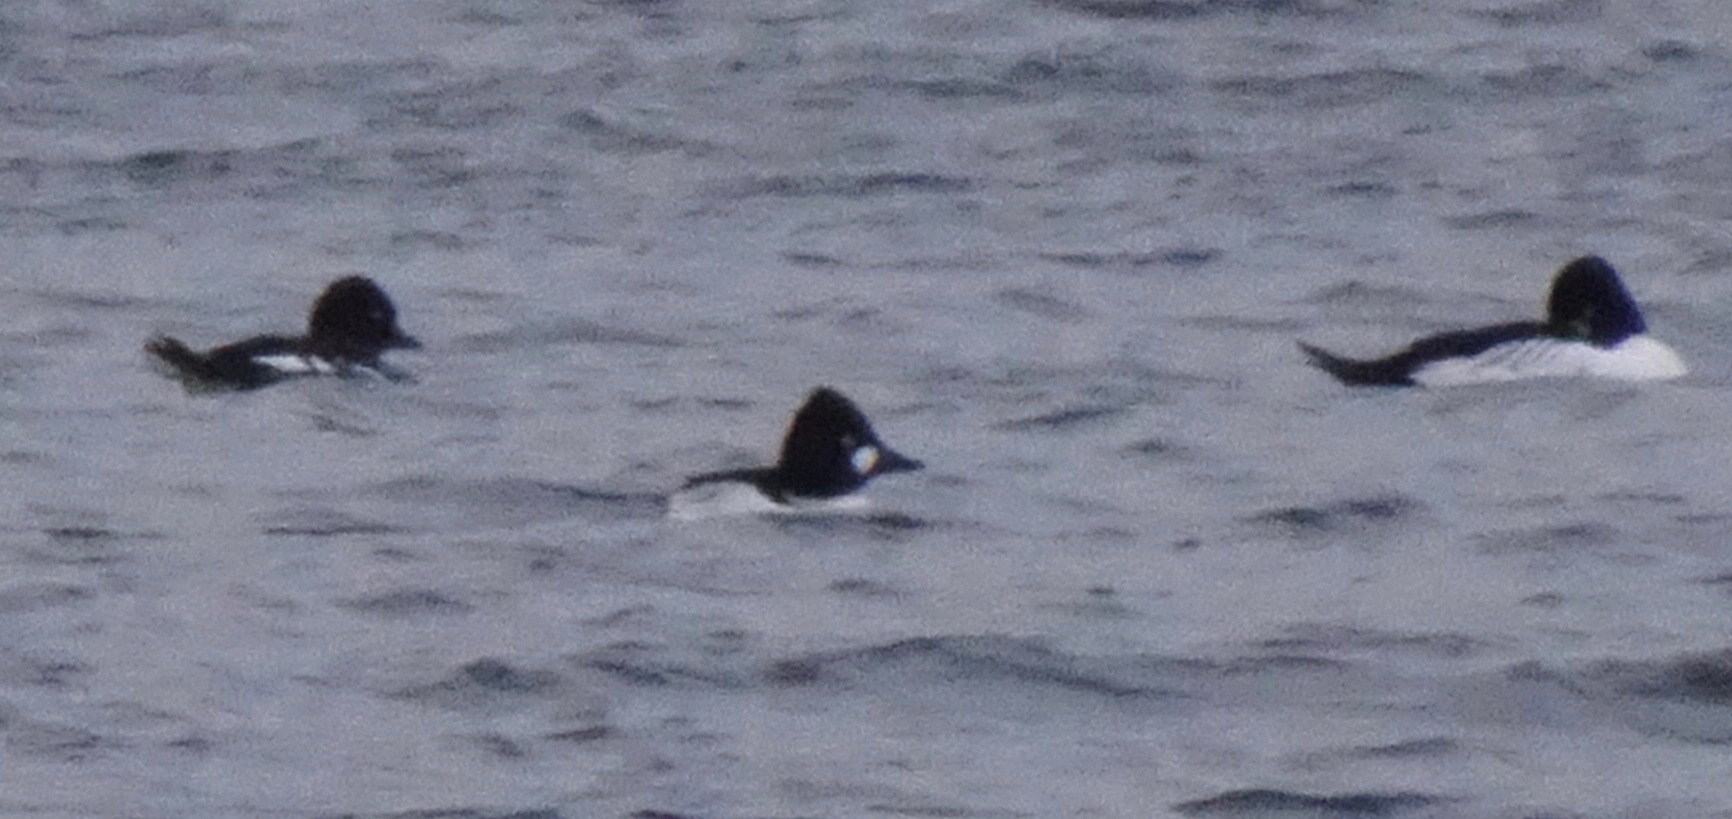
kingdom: Animalia
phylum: Chordata
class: Aves
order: Anseriformes
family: Anatidae
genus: Bucephala
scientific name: Bucephala clangula
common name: Common goldeneye
